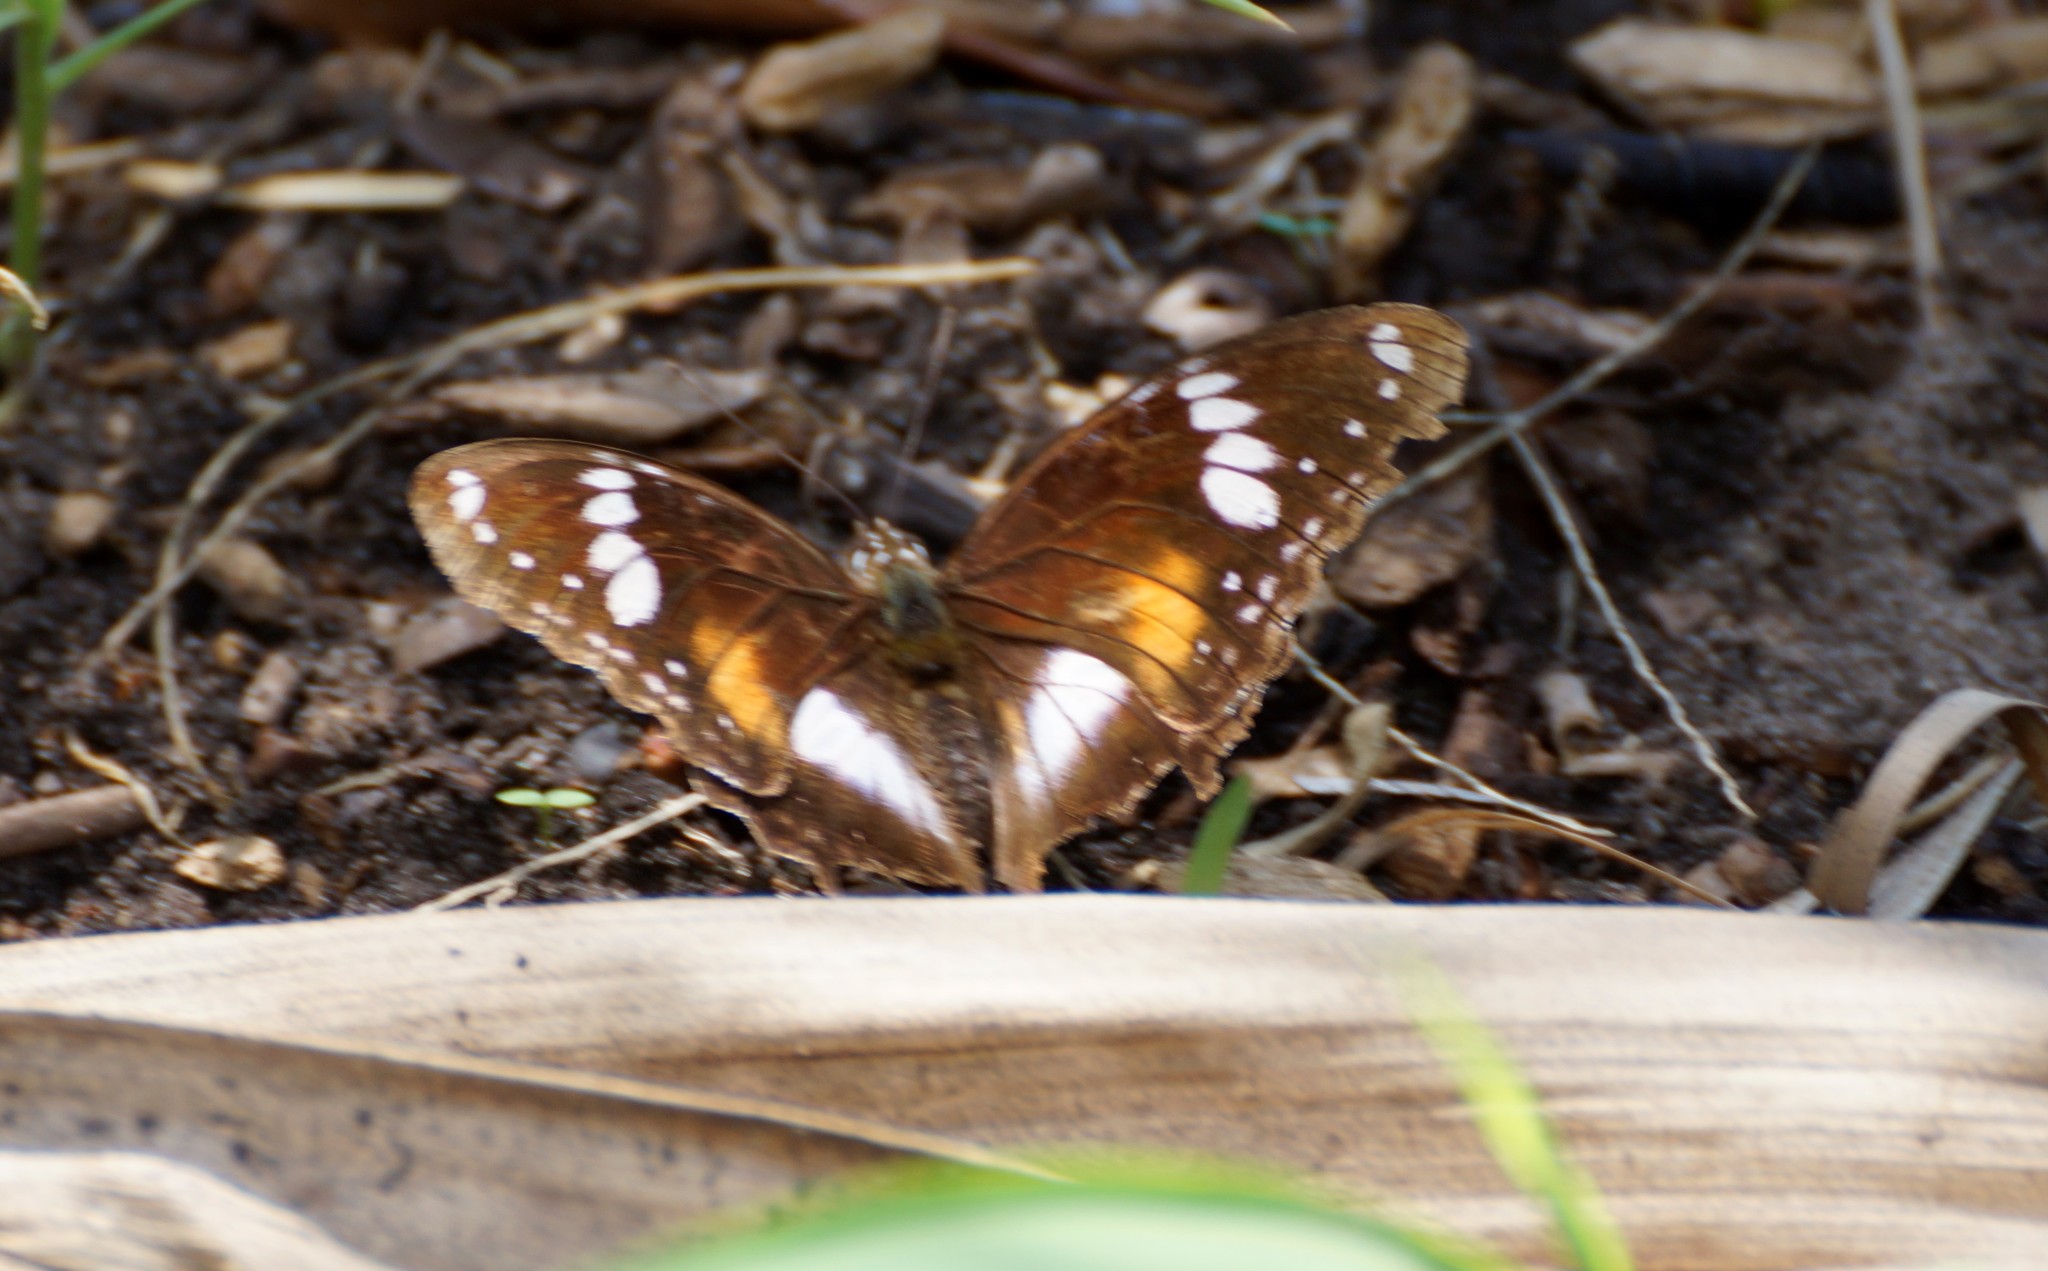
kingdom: Animalia
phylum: Arthropoda
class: Insecta
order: Lepidoptera
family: Nymphalidae
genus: Hypolimnas
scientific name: Hypolimnas bolina
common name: Great eggfly
